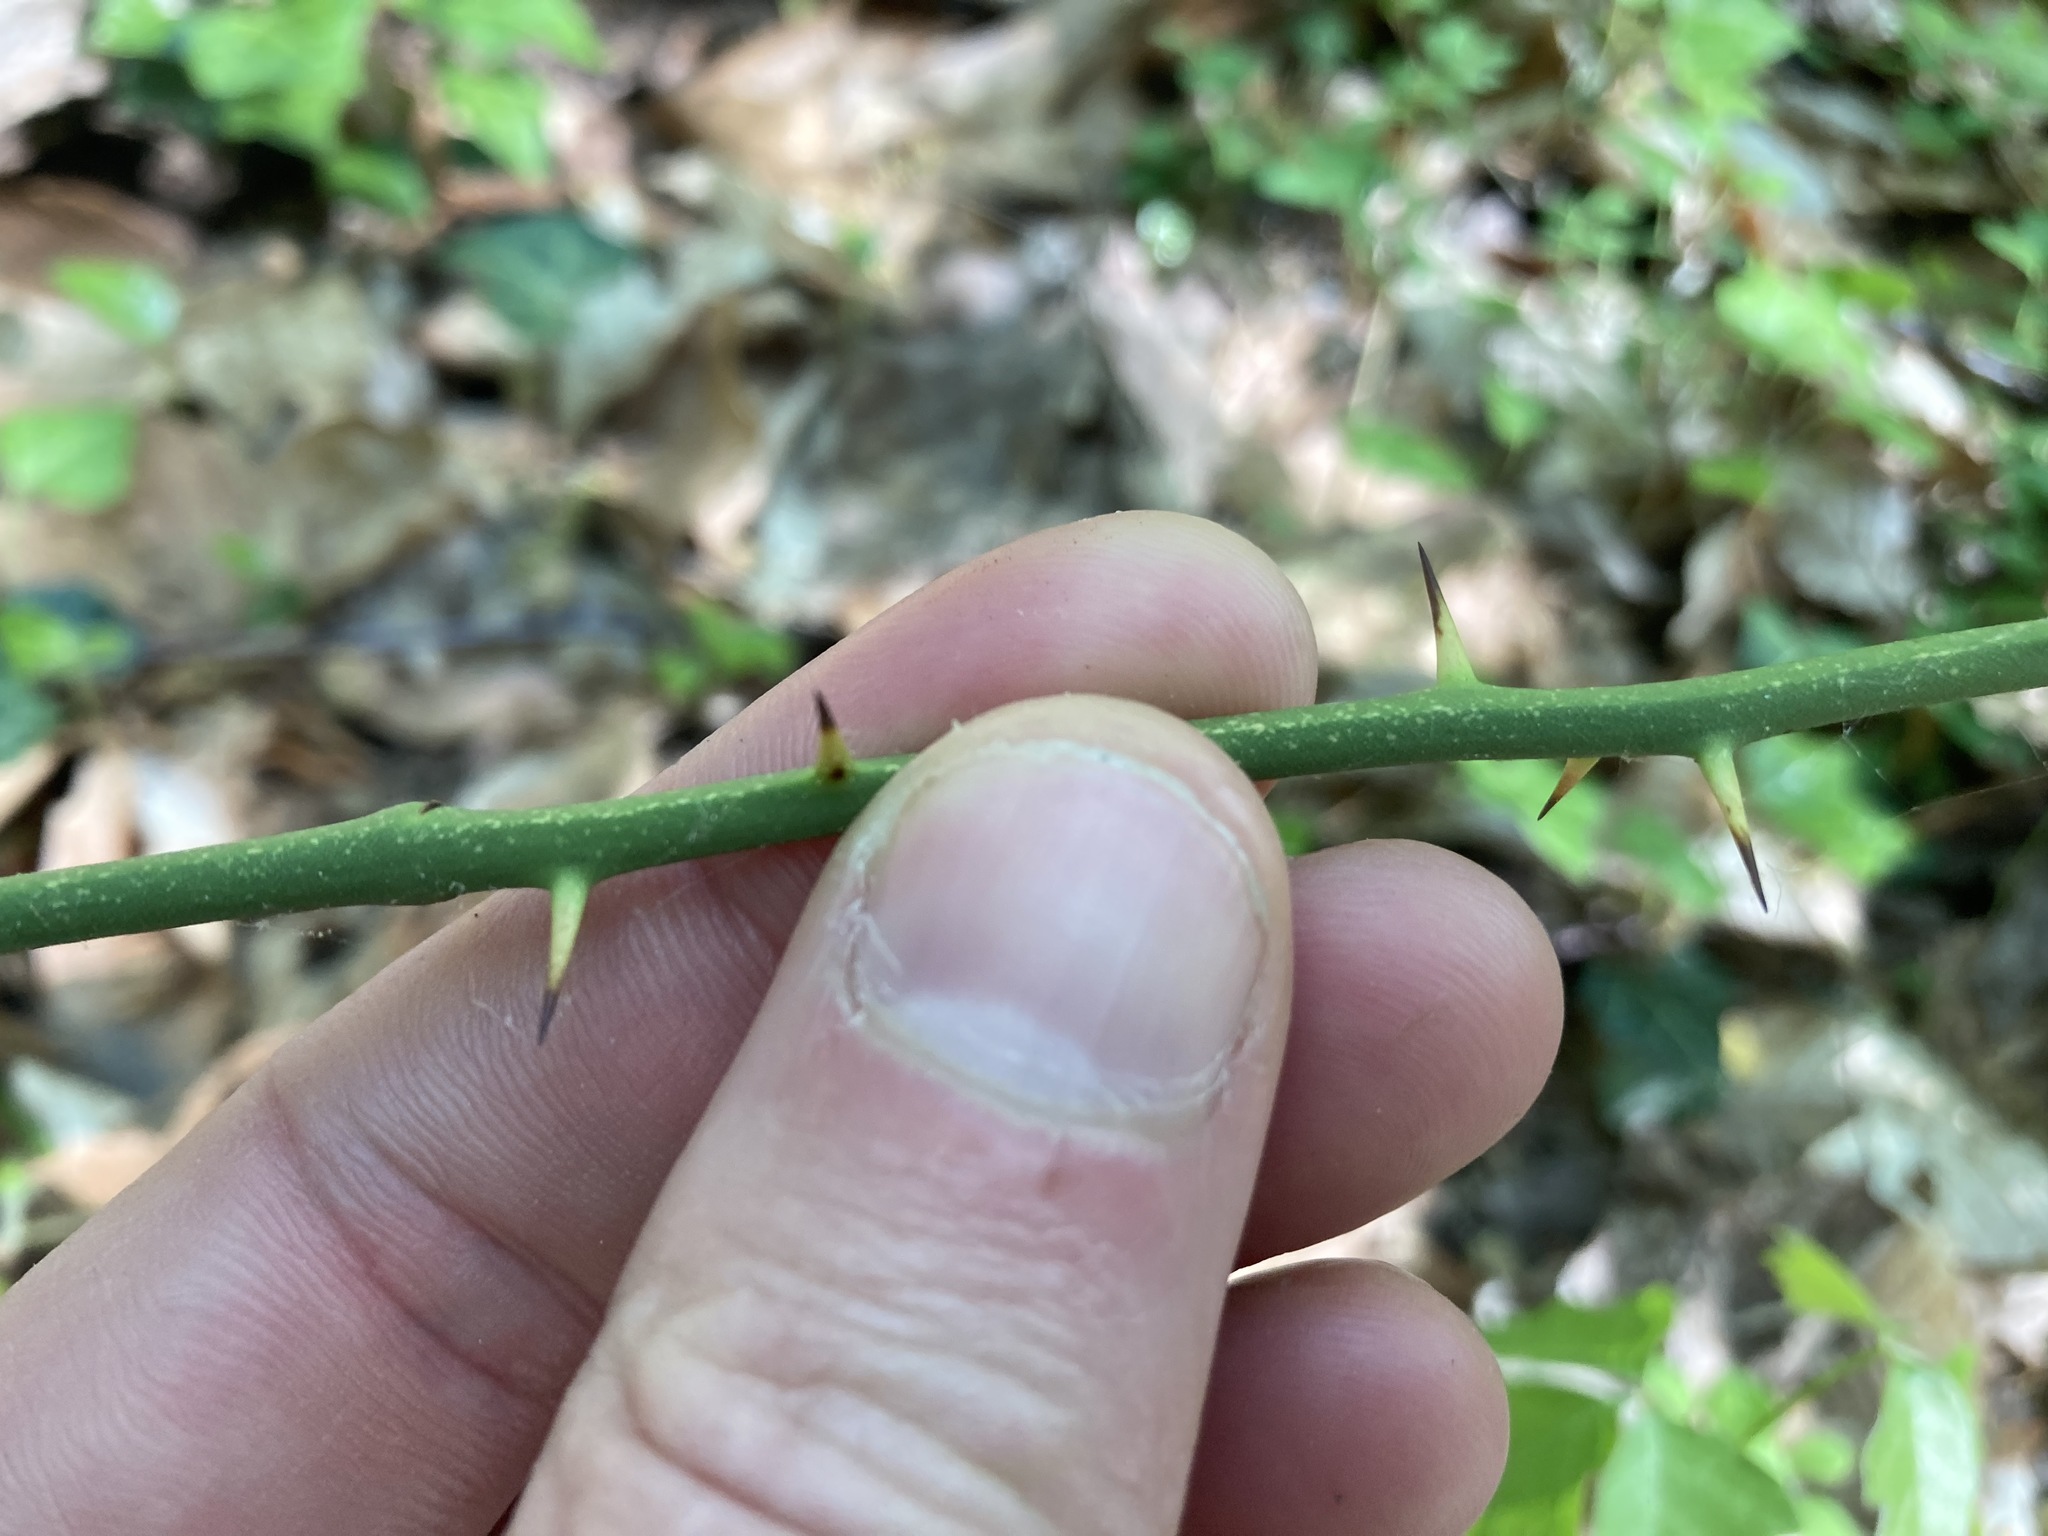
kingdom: Plantae
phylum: Tracheophyta
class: Liliopsida
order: Liliales
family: Smilacaceae
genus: Smilax
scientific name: Smilax rotundifolia
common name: Bullbriar
